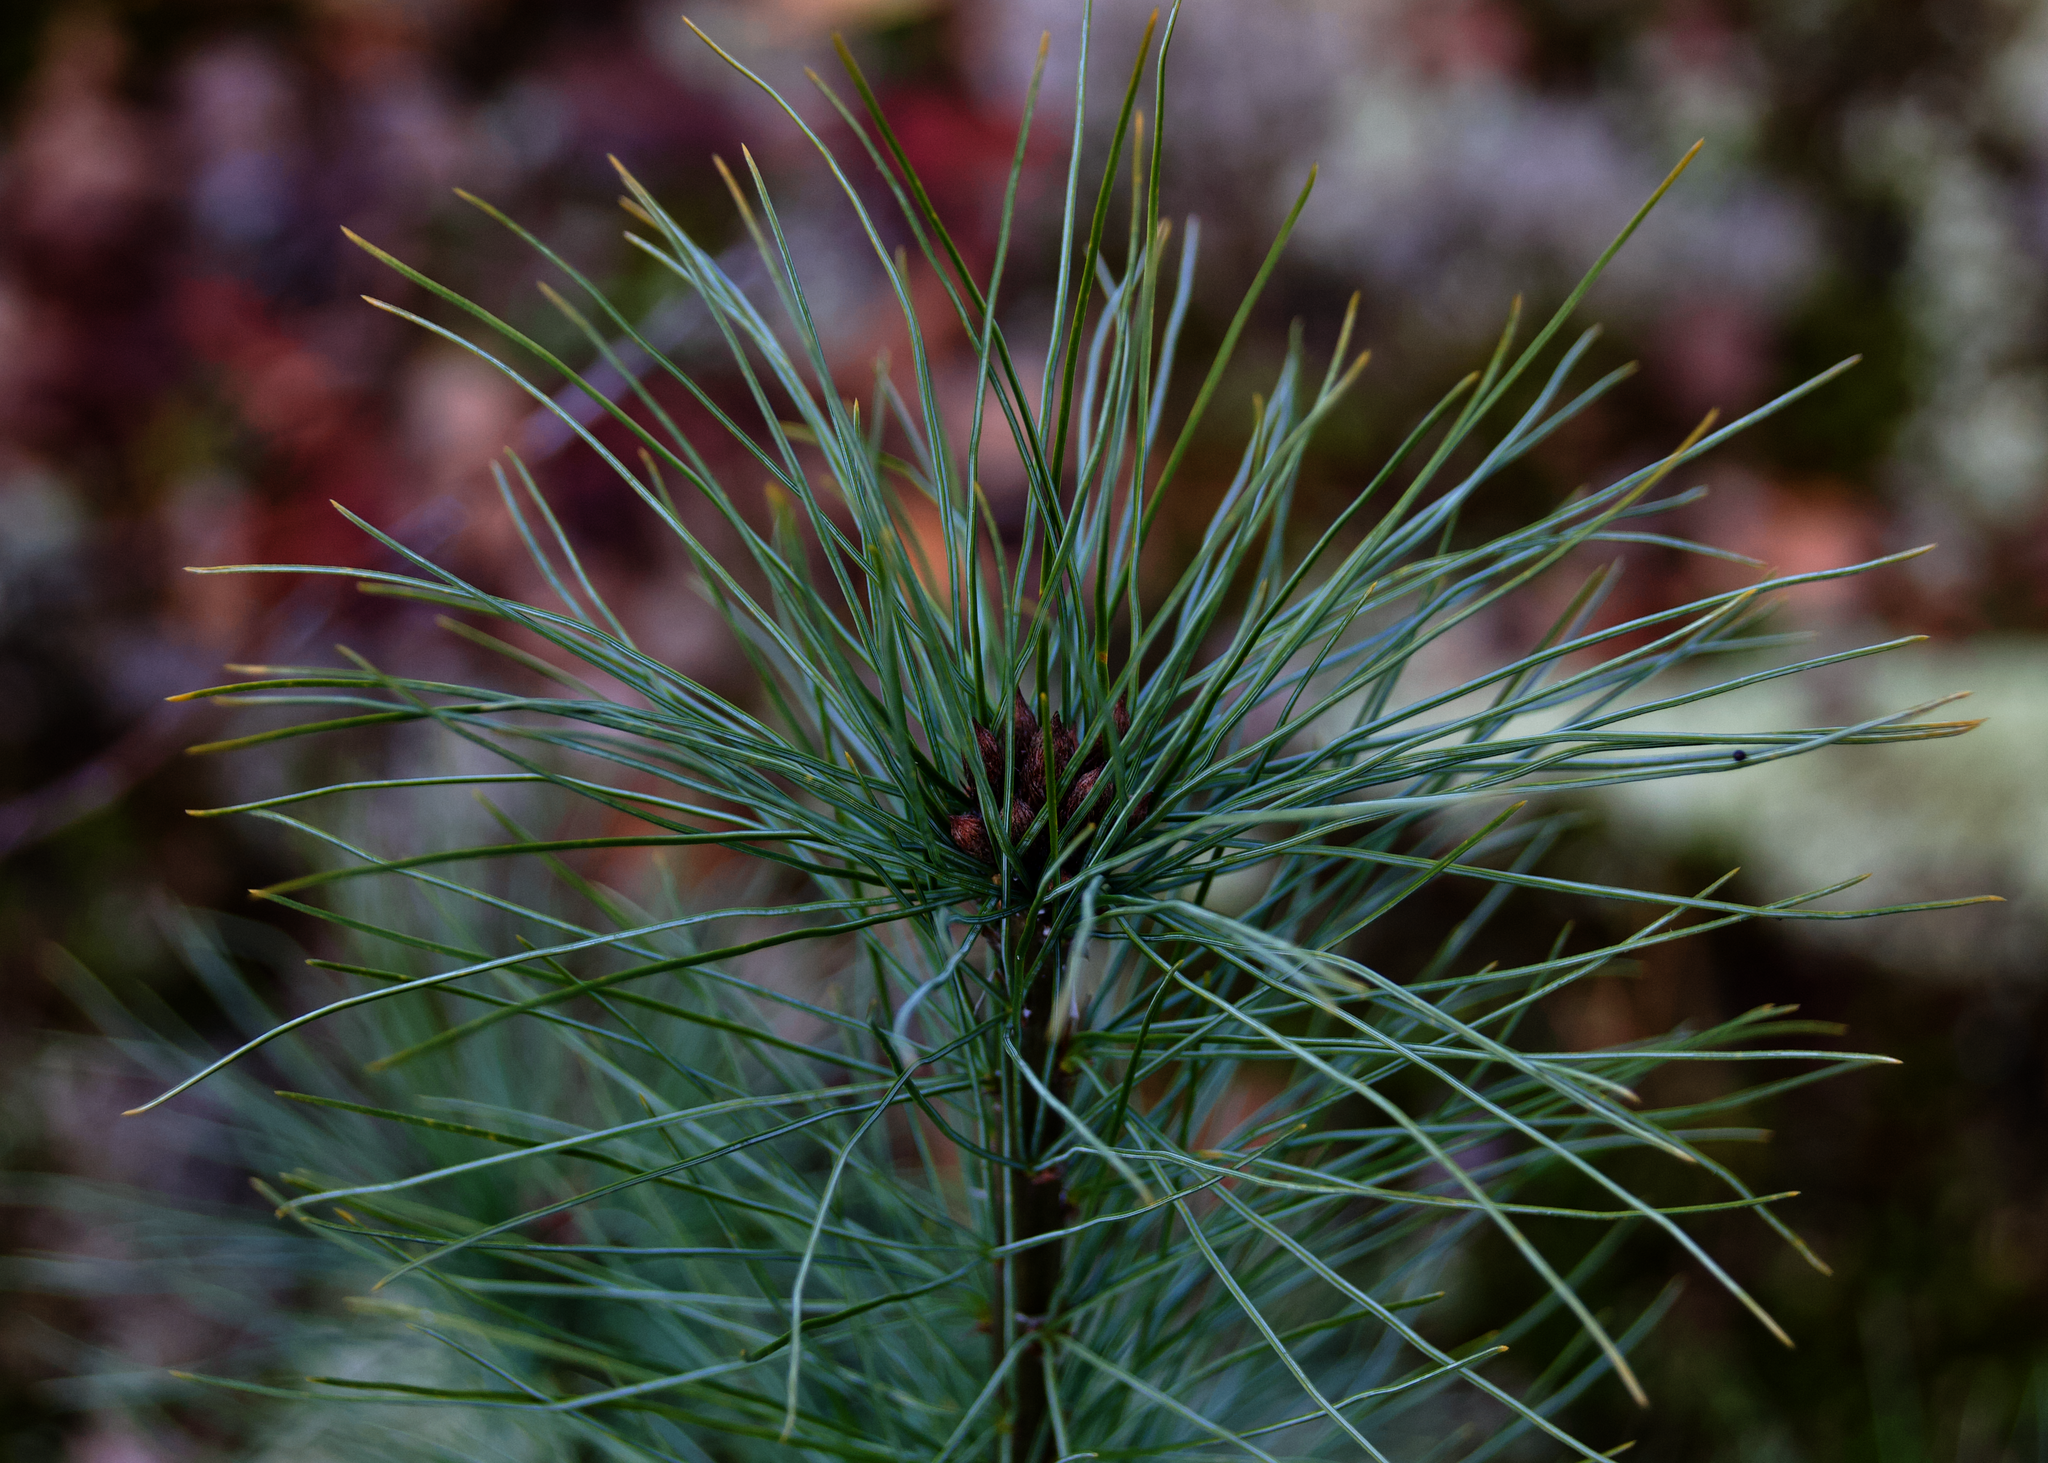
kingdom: Plantae
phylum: Tracheophyta
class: Pinopsida
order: Pinales
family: Pinaceae
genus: Pinus
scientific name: Pinus strobus
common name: Weymouth pine
